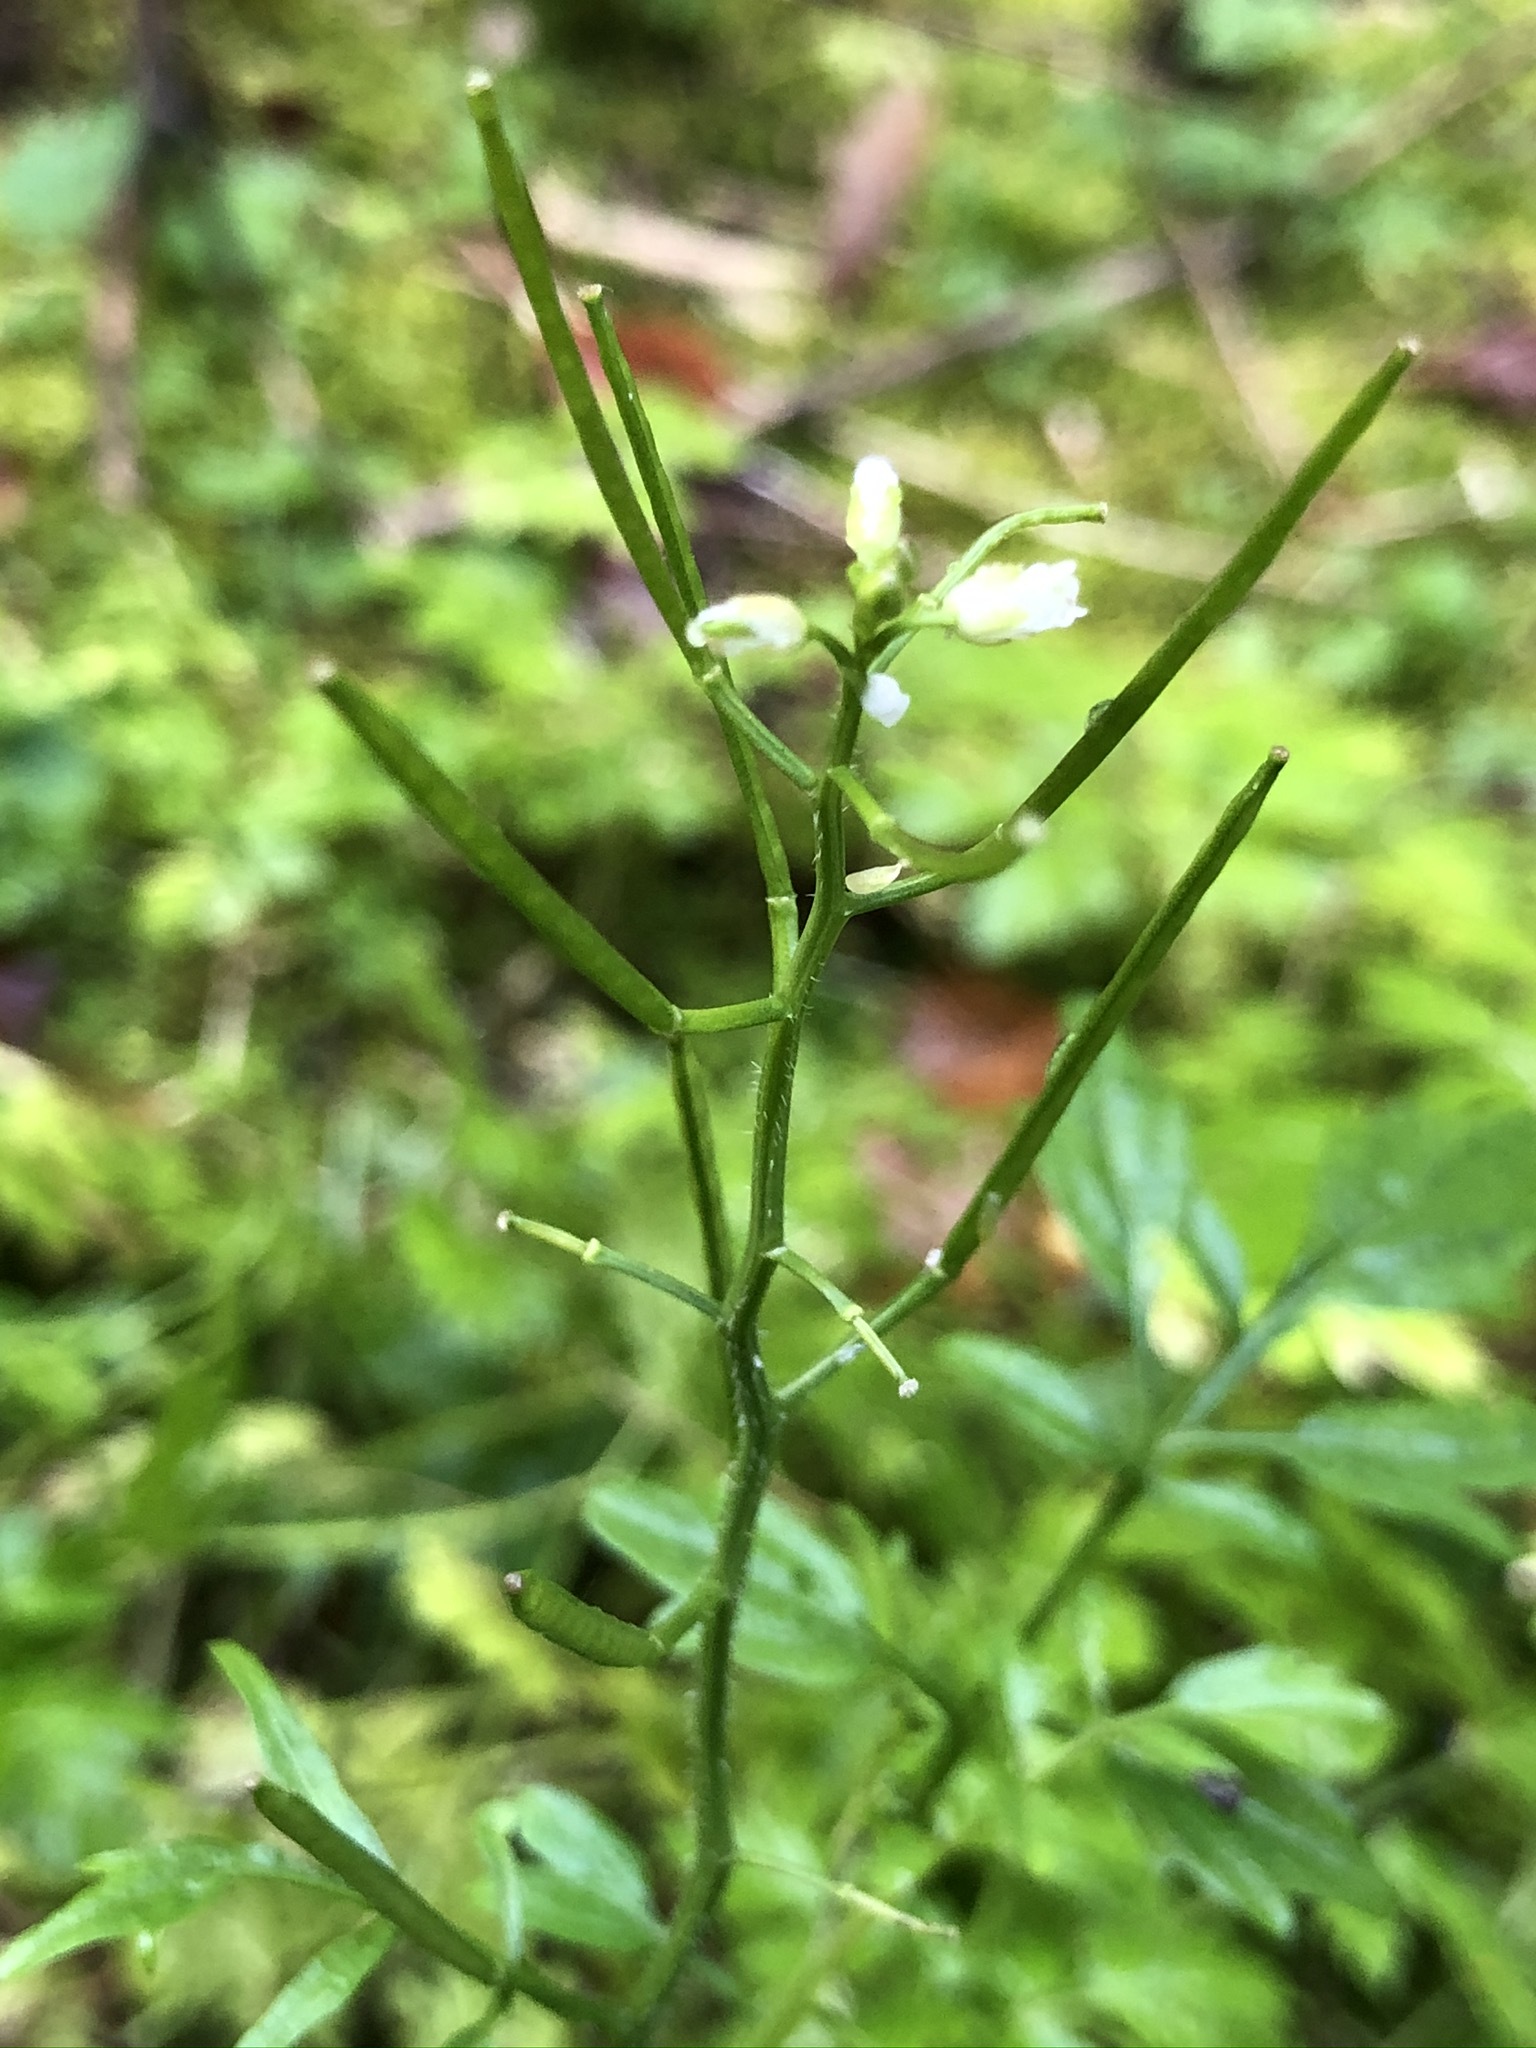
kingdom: Plantae
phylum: Tracheophyta
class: Magnoliopsida
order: Brassicales
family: Brassicaceae
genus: Cardamine
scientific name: Cardamine flexuosa
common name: Woodland bittercress
